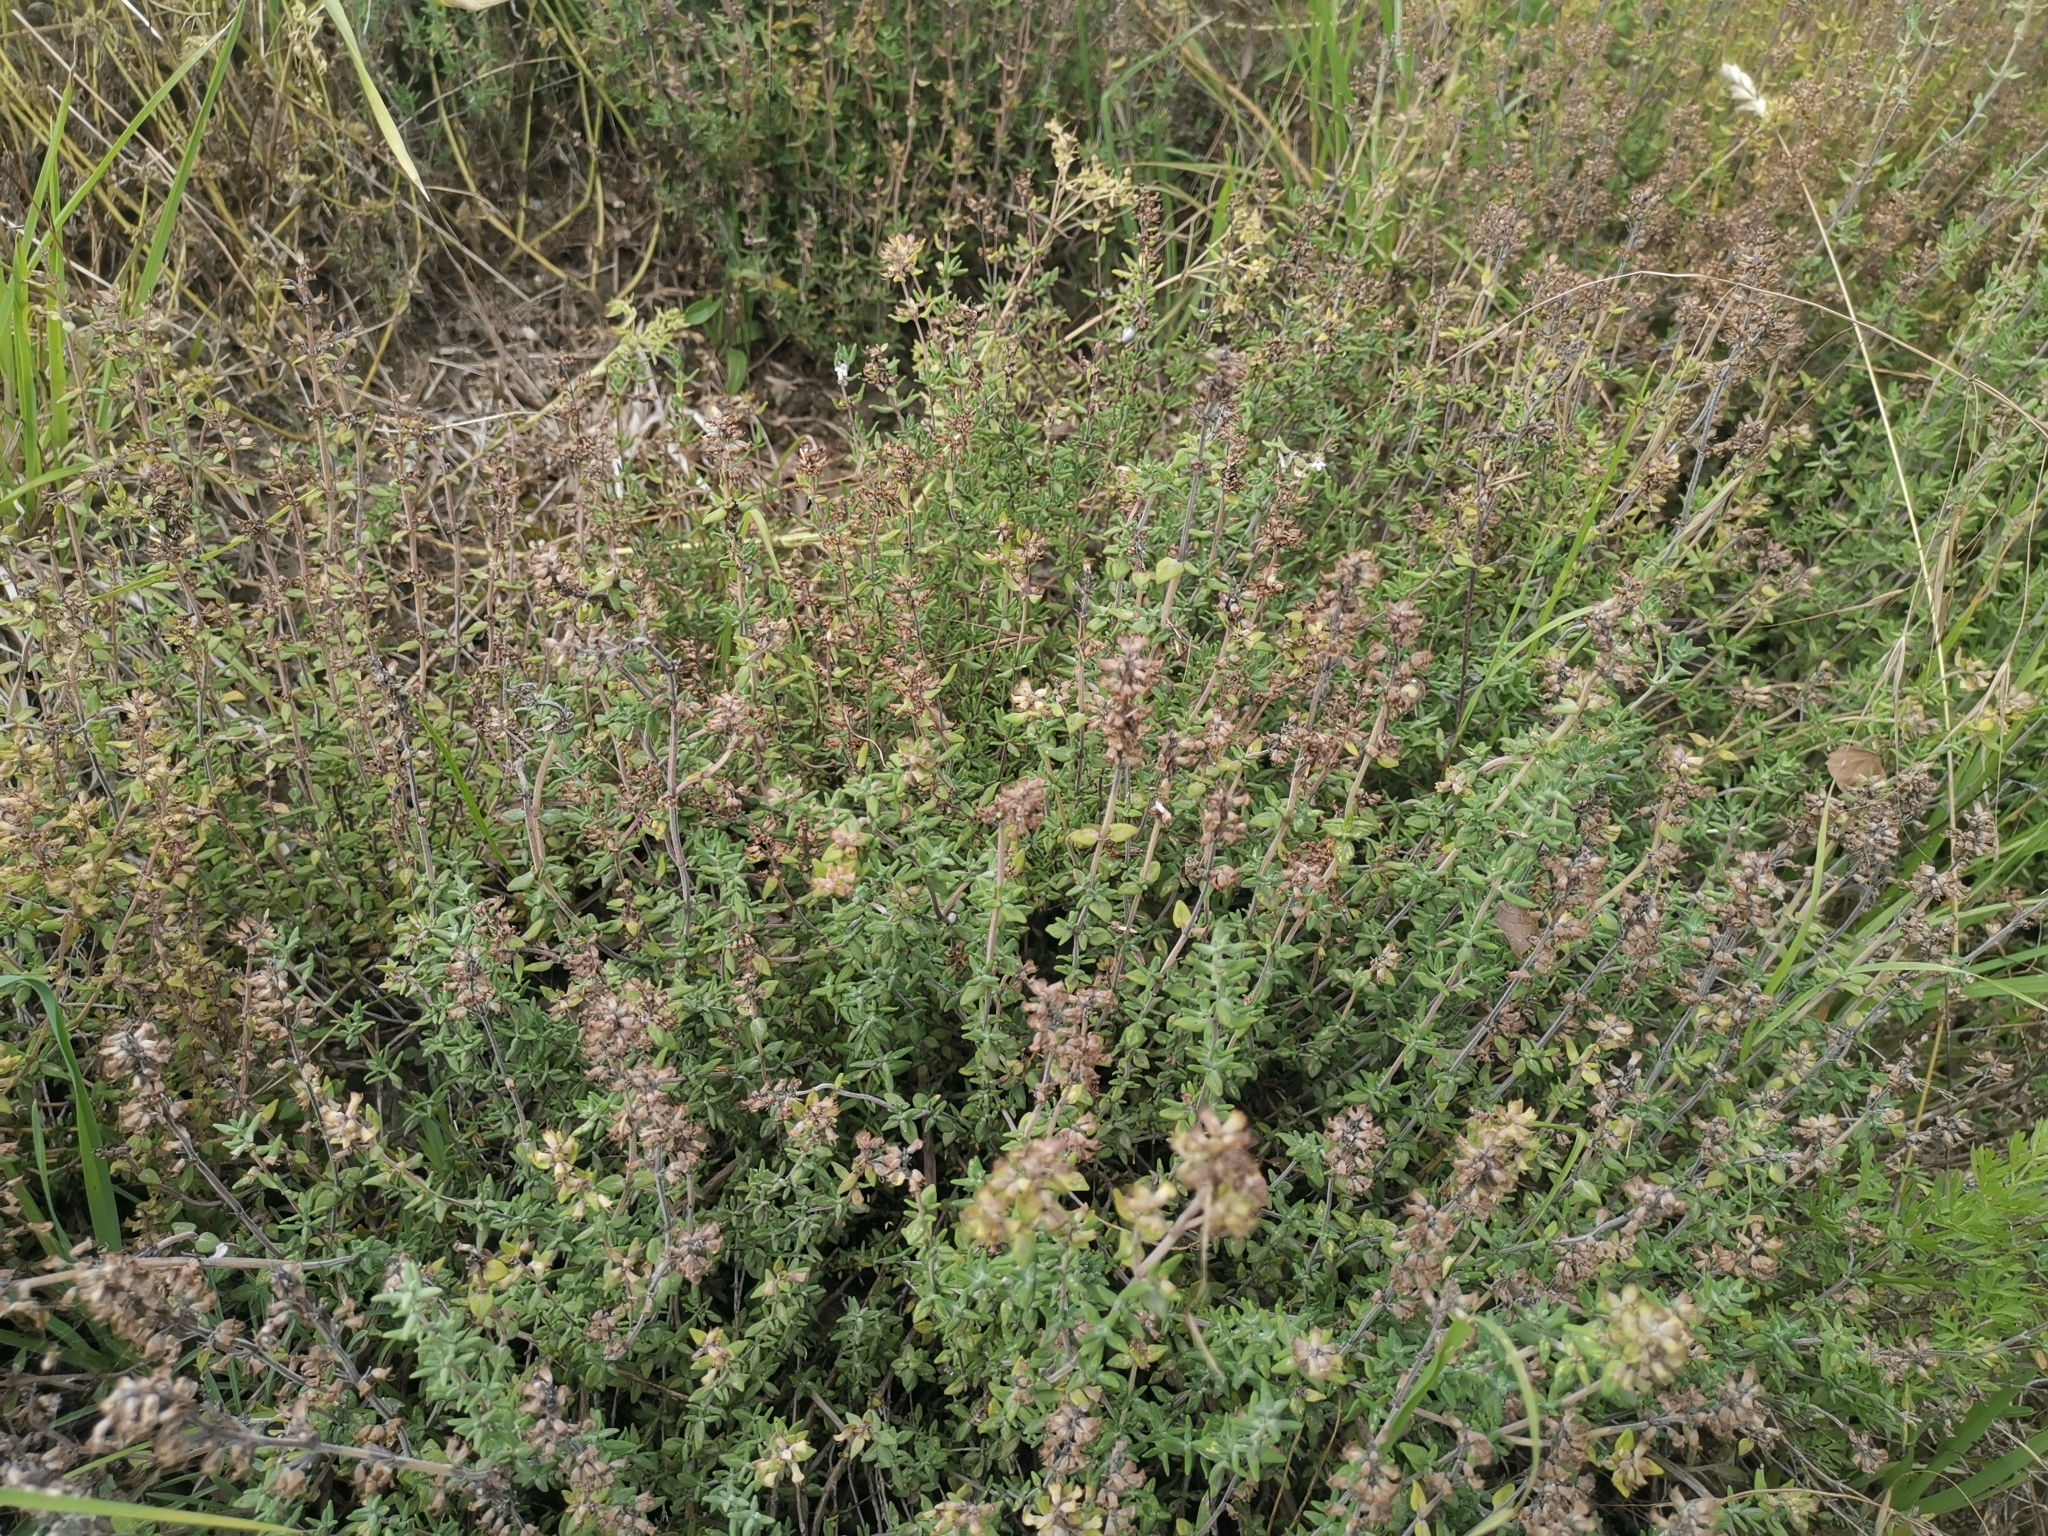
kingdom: Plantae
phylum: Tracheophyta
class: Magnoliopsida
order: Lamiales
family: Lamiaceae
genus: Thymus
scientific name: Thymus vulgaris
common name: Garden thyme
